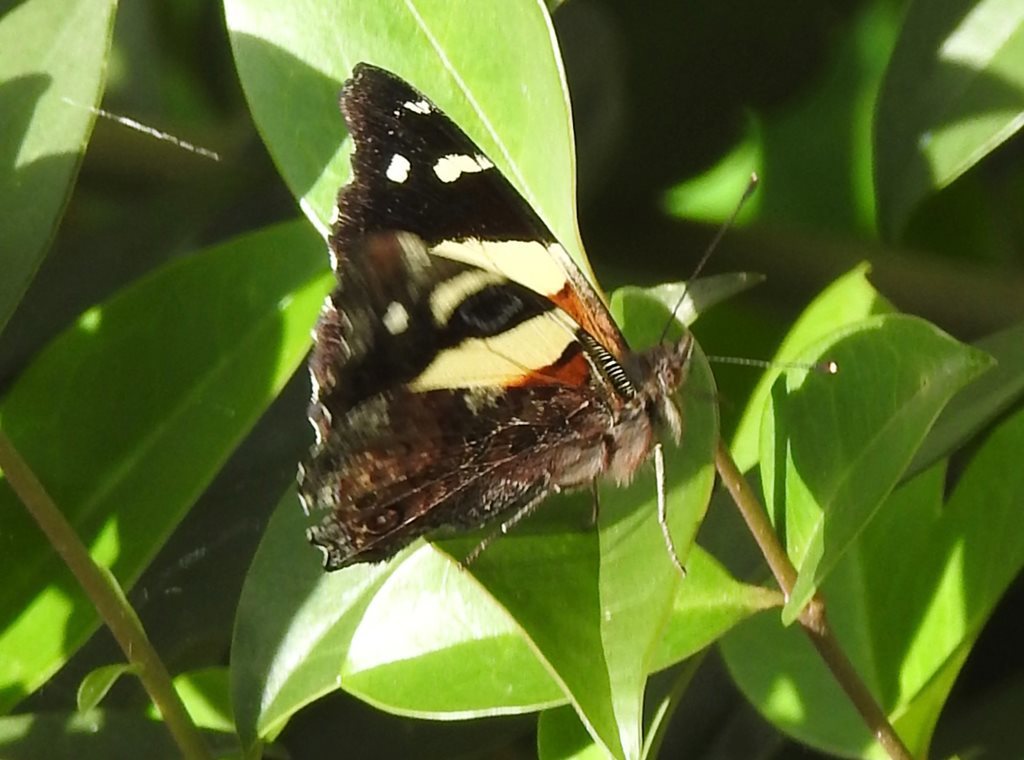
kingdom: Animalia
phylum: Arthropoda
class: Insecta
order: Lepidoptera
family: Nymphalidae
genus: Vanessa
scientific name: Vanessa itea
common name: Yellow admiral
